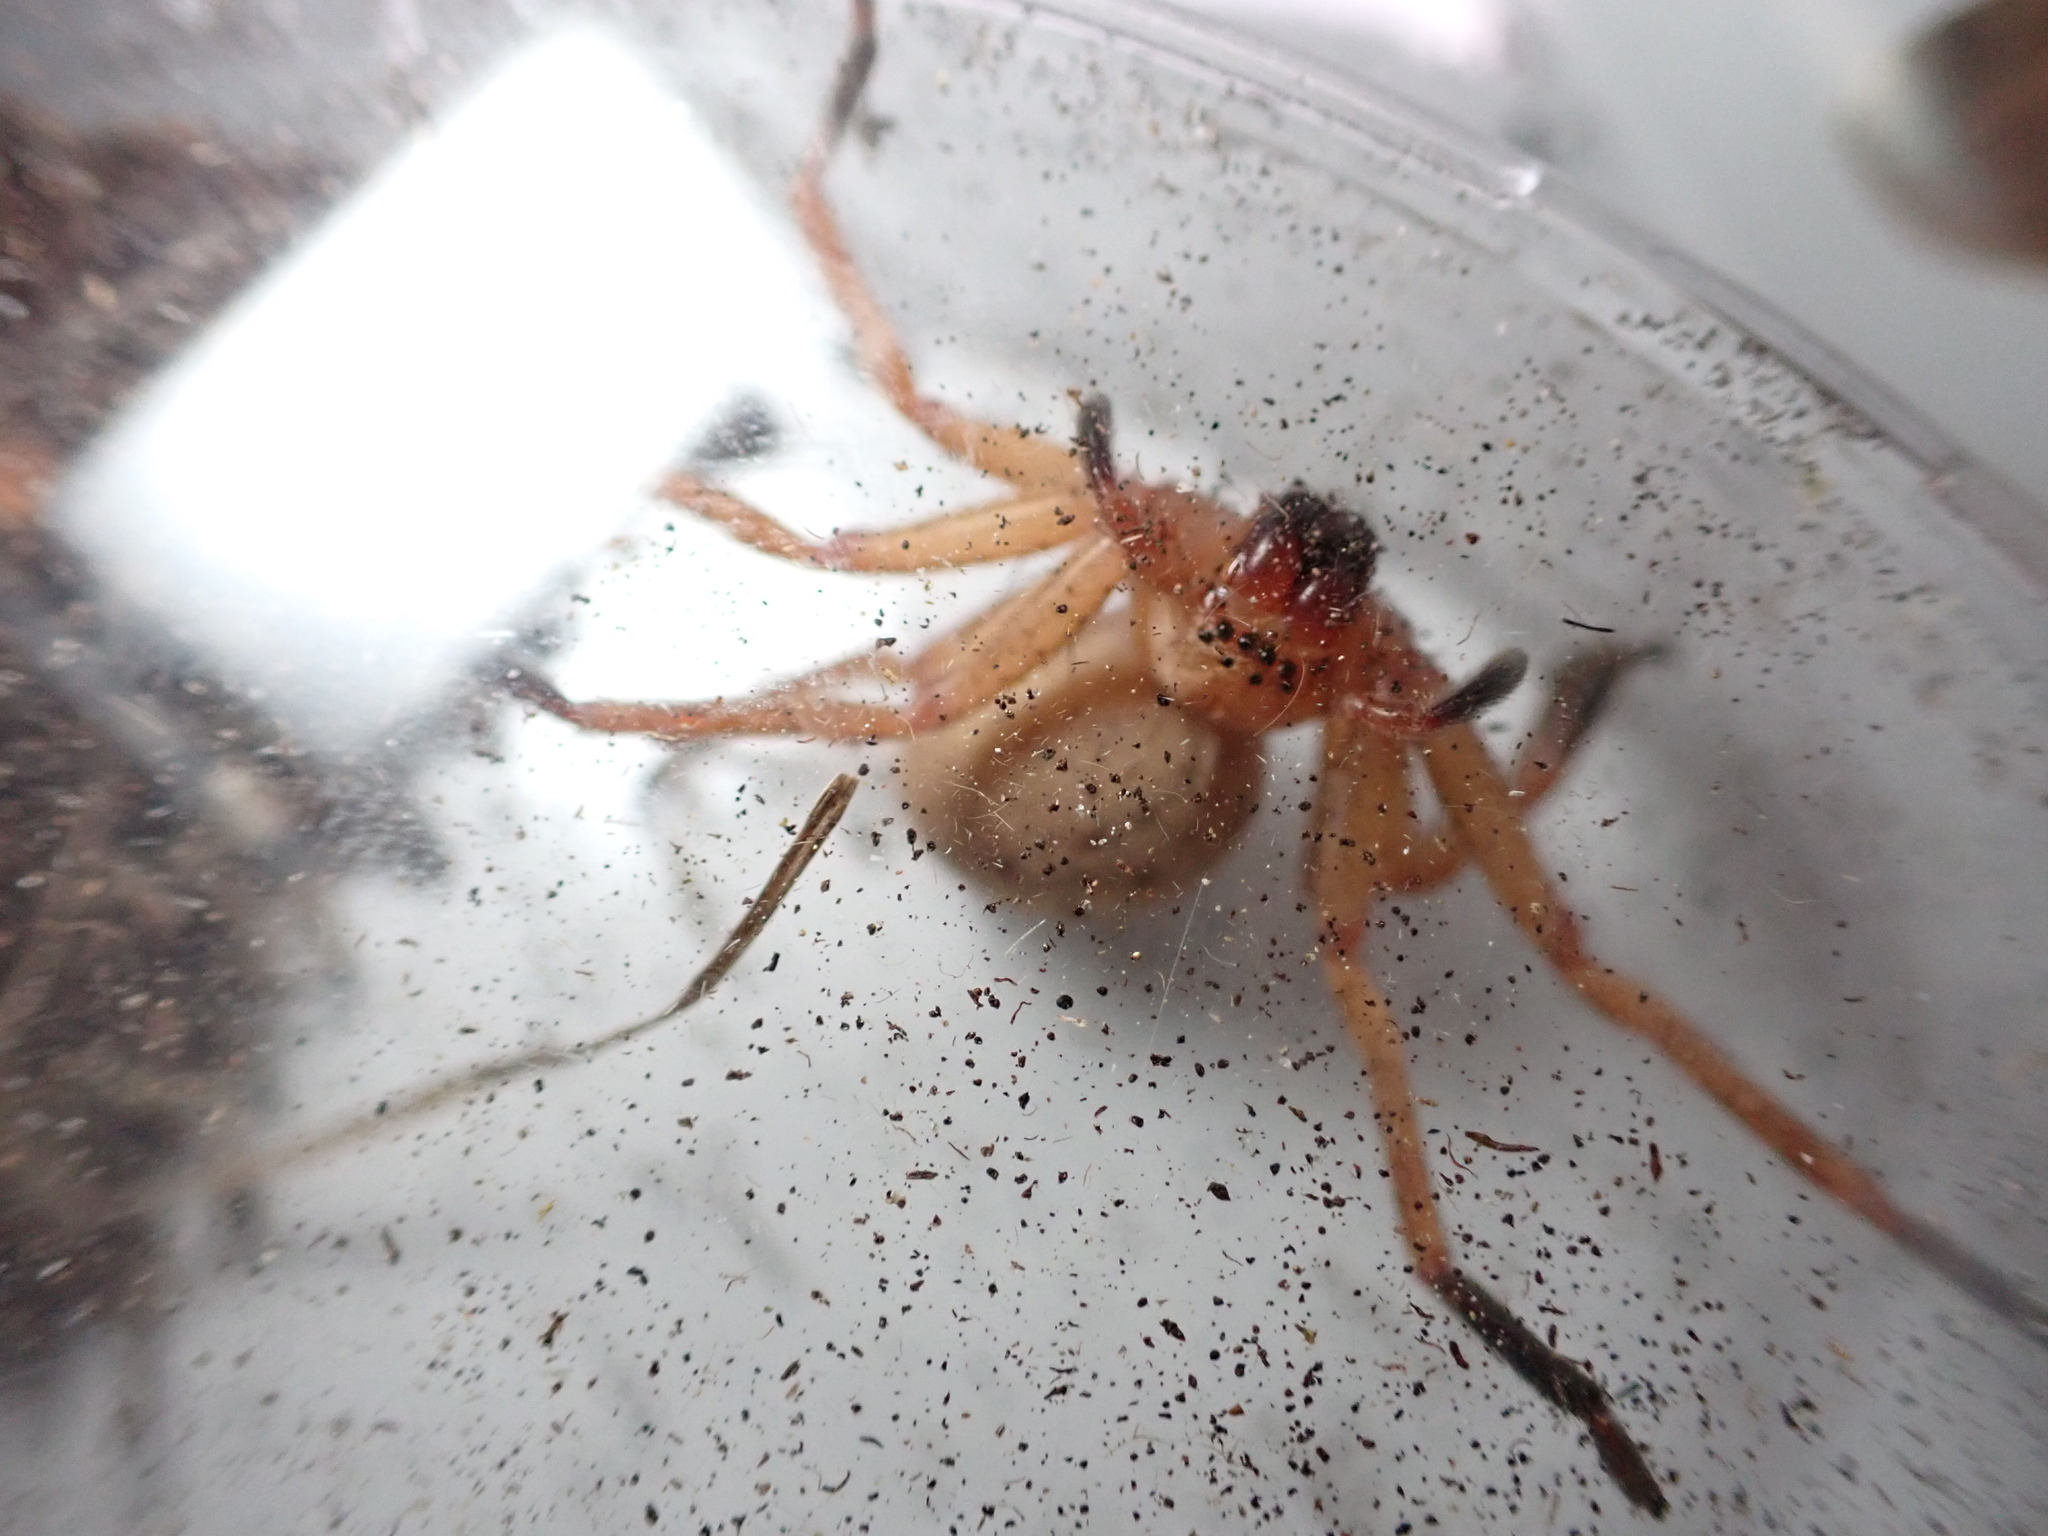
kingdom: Animalia
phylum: Arthropoda
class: Arachnida
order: Araneae
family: Sparassidae
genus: Olios
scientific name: Olios argelasius
